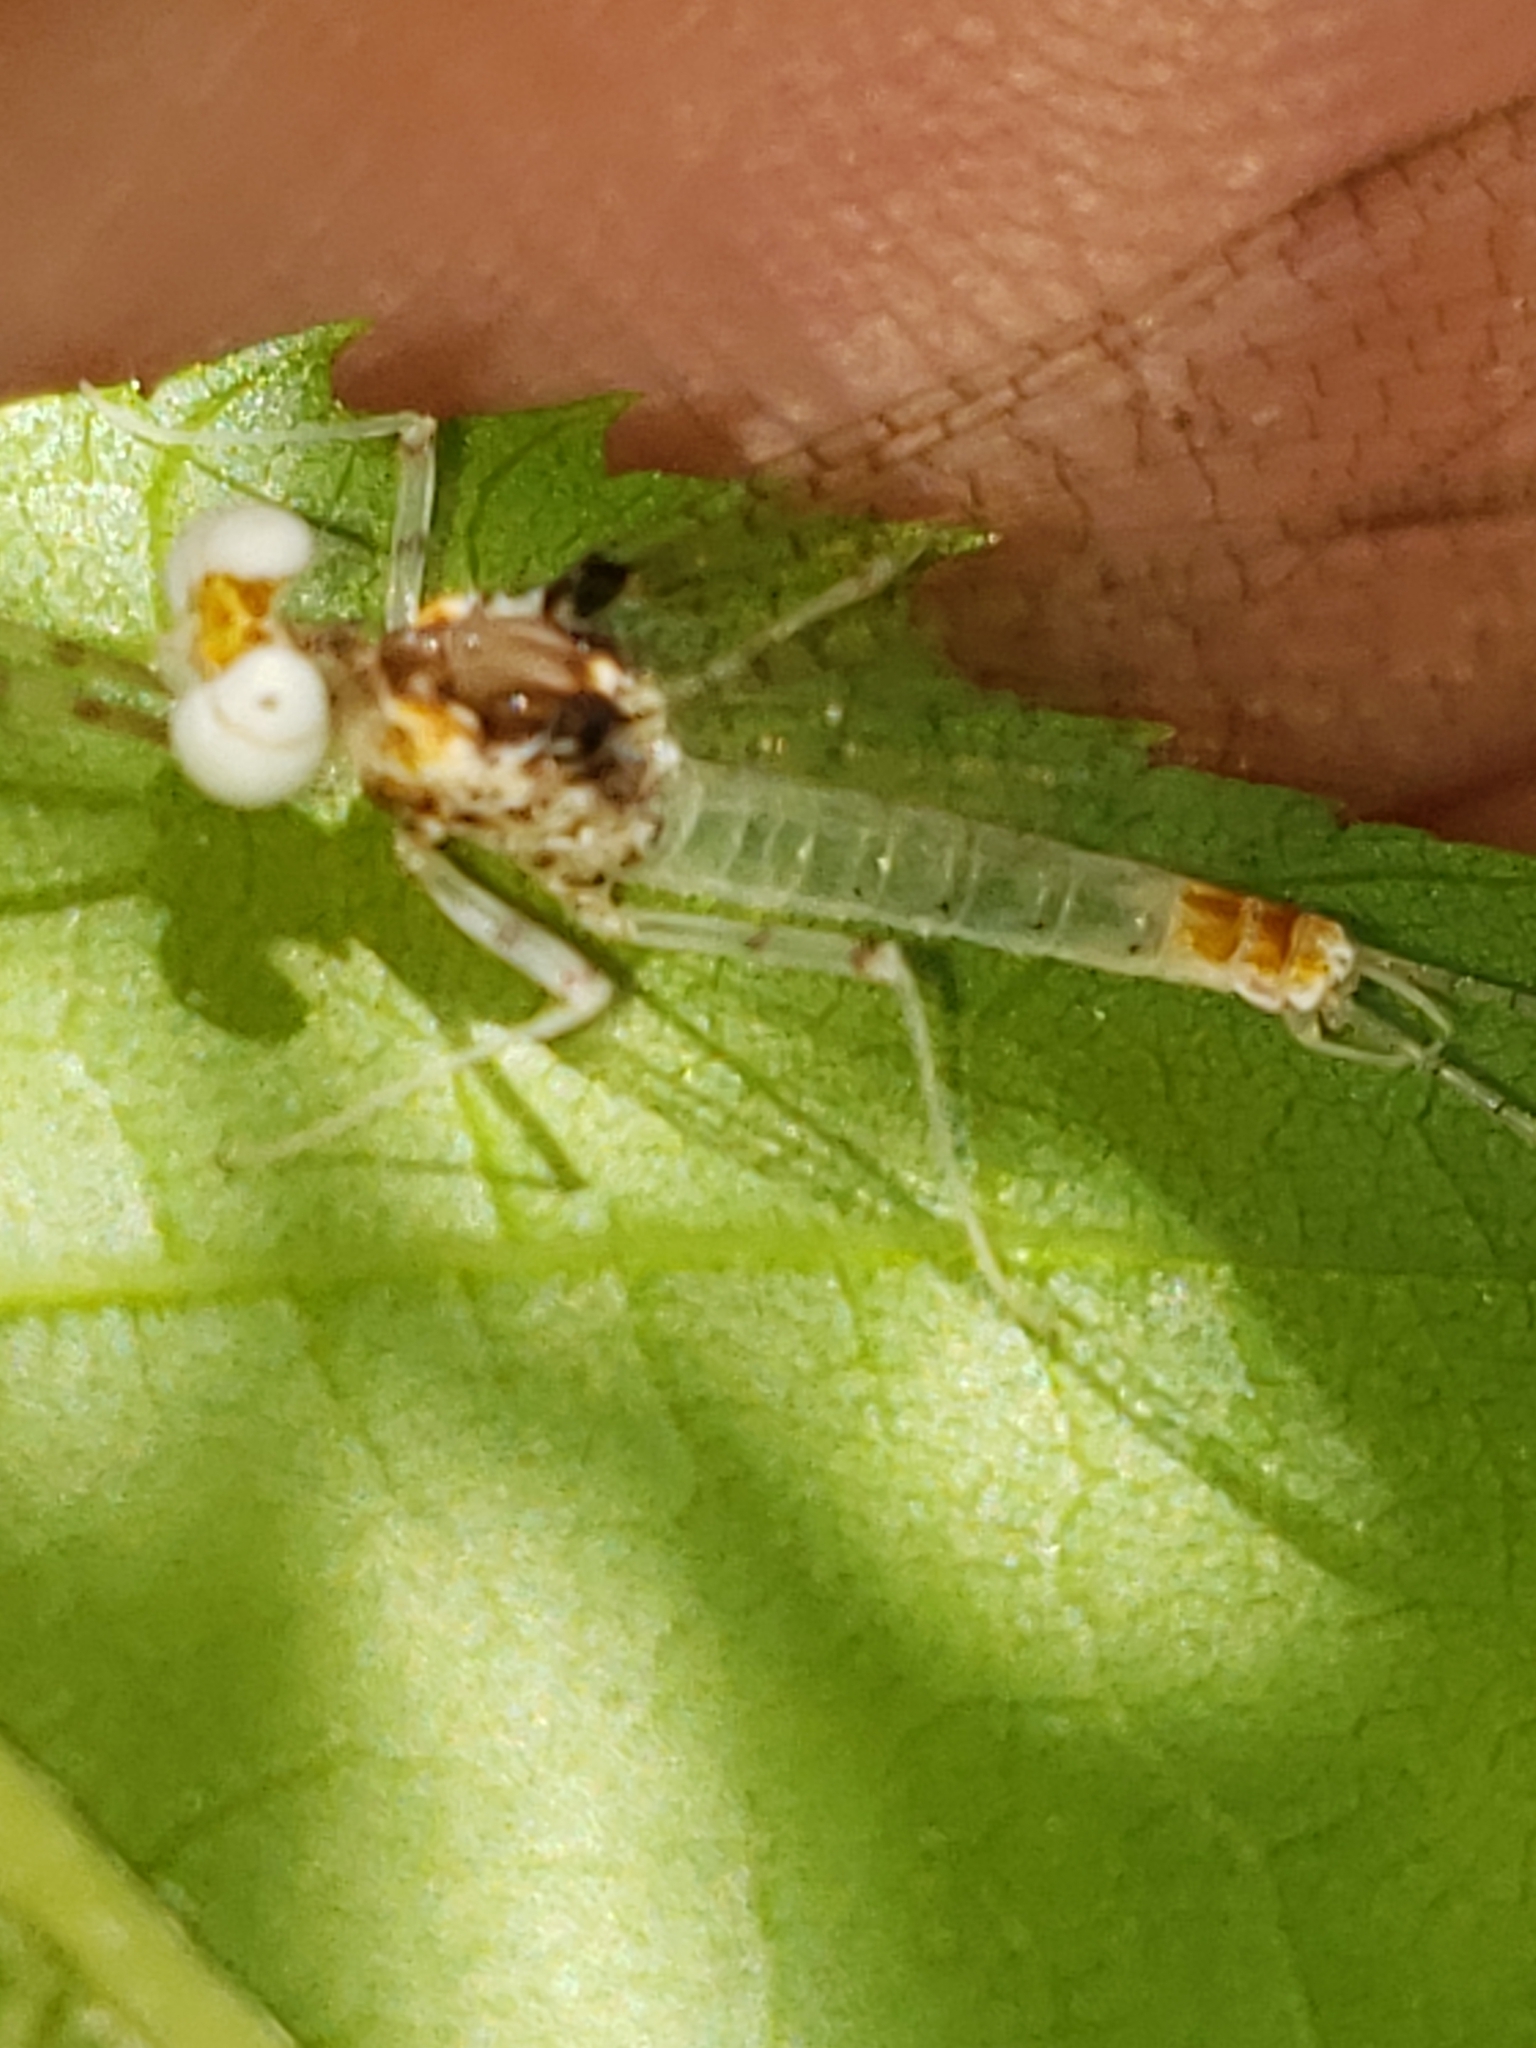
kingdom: Animalia
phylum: Arthropoda
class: Insecta
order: Ephemeroptera
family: Heptageniidae
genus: Maccaffertium
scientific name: Maccaffertium modestum
